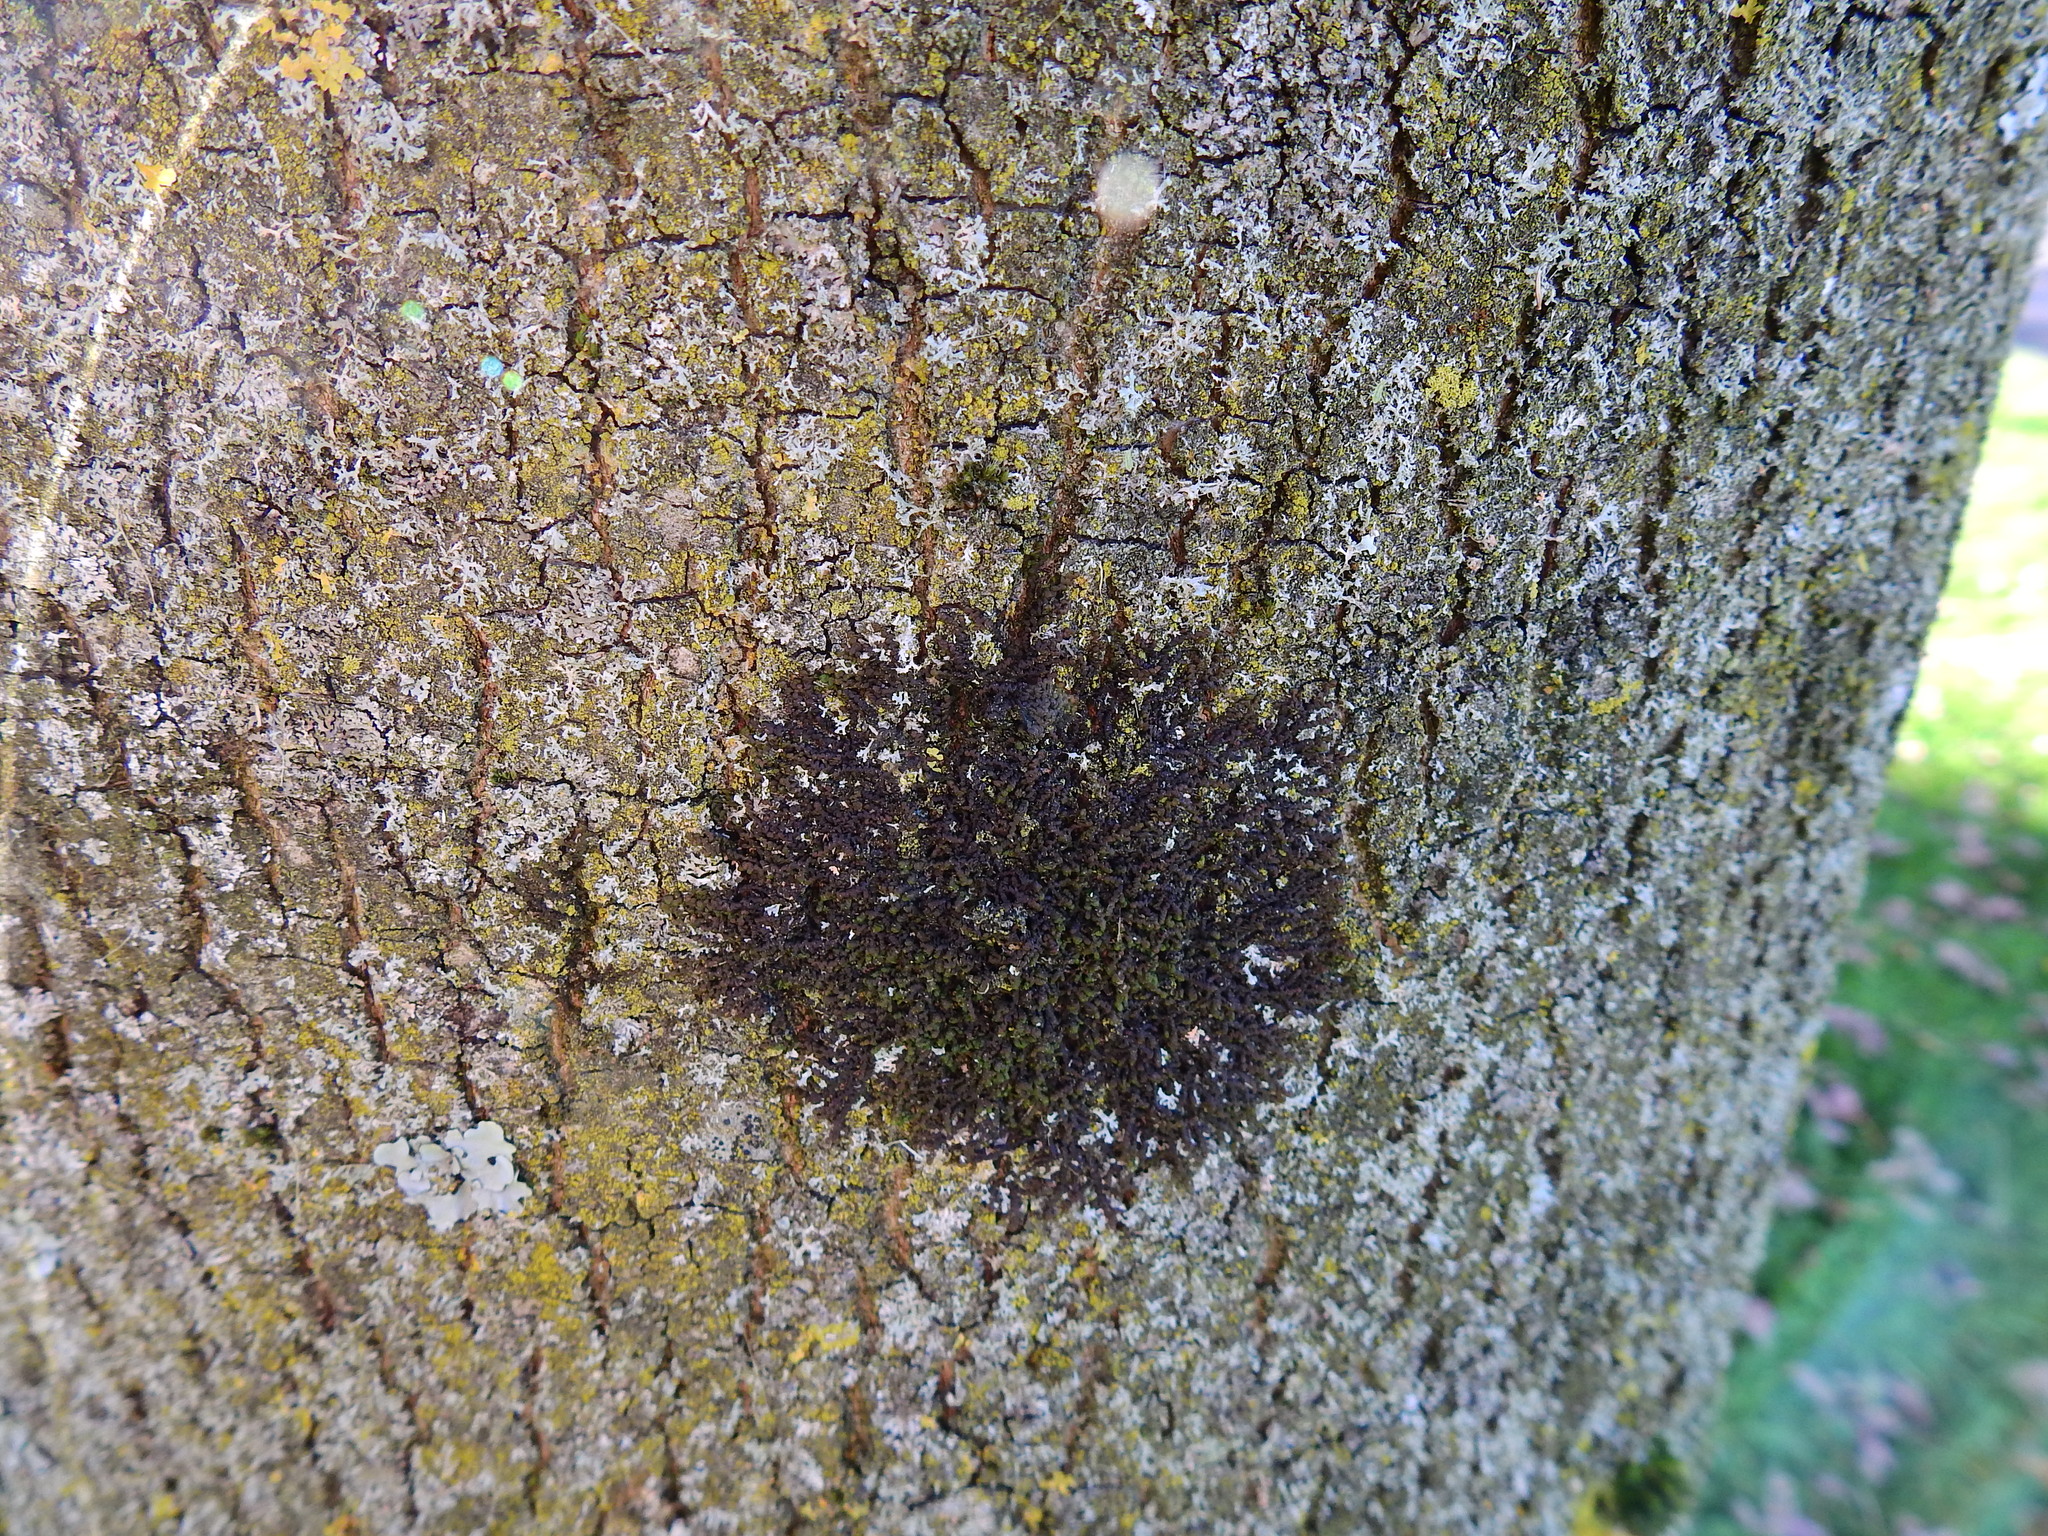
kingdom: Plantae
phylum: Marchantiophyta
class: Jungermanniopsida
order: Porellales
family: Frullaniaceae
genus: Frullania
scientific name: Frullania dilatata
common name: Dilated scalewort
